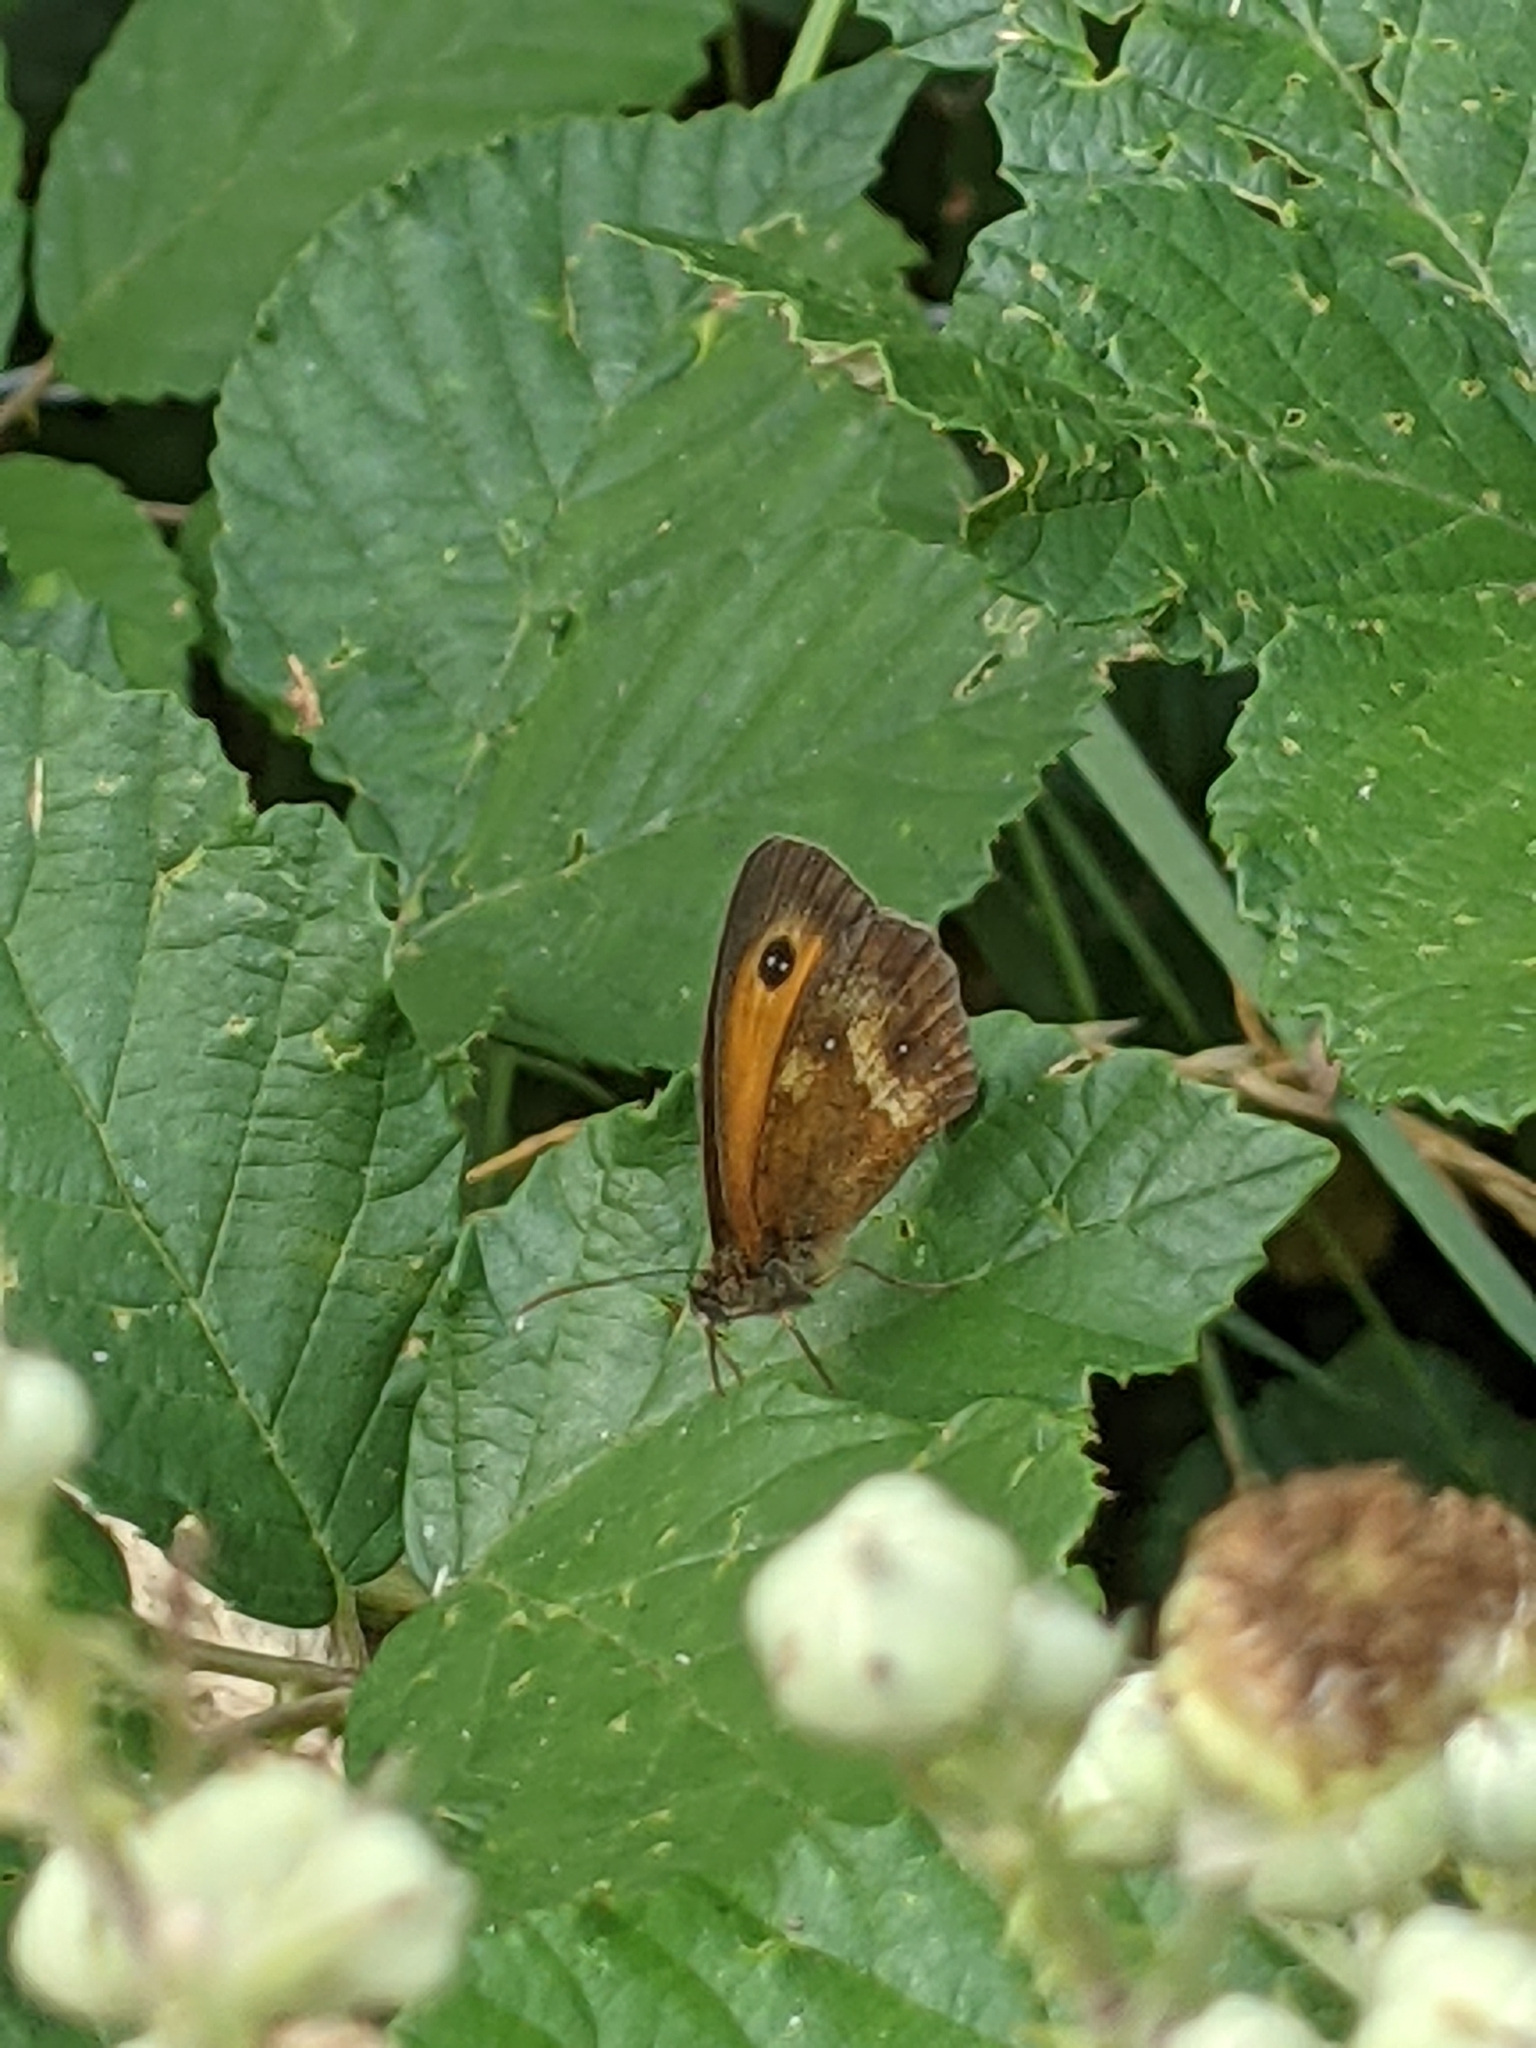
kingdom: Animalia
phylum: Arthropoda
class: Insecta
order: Lepidoptera
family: Nymphalidae
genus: Pyronia
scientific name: Pyronia tithonus
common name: Gatekeeper
